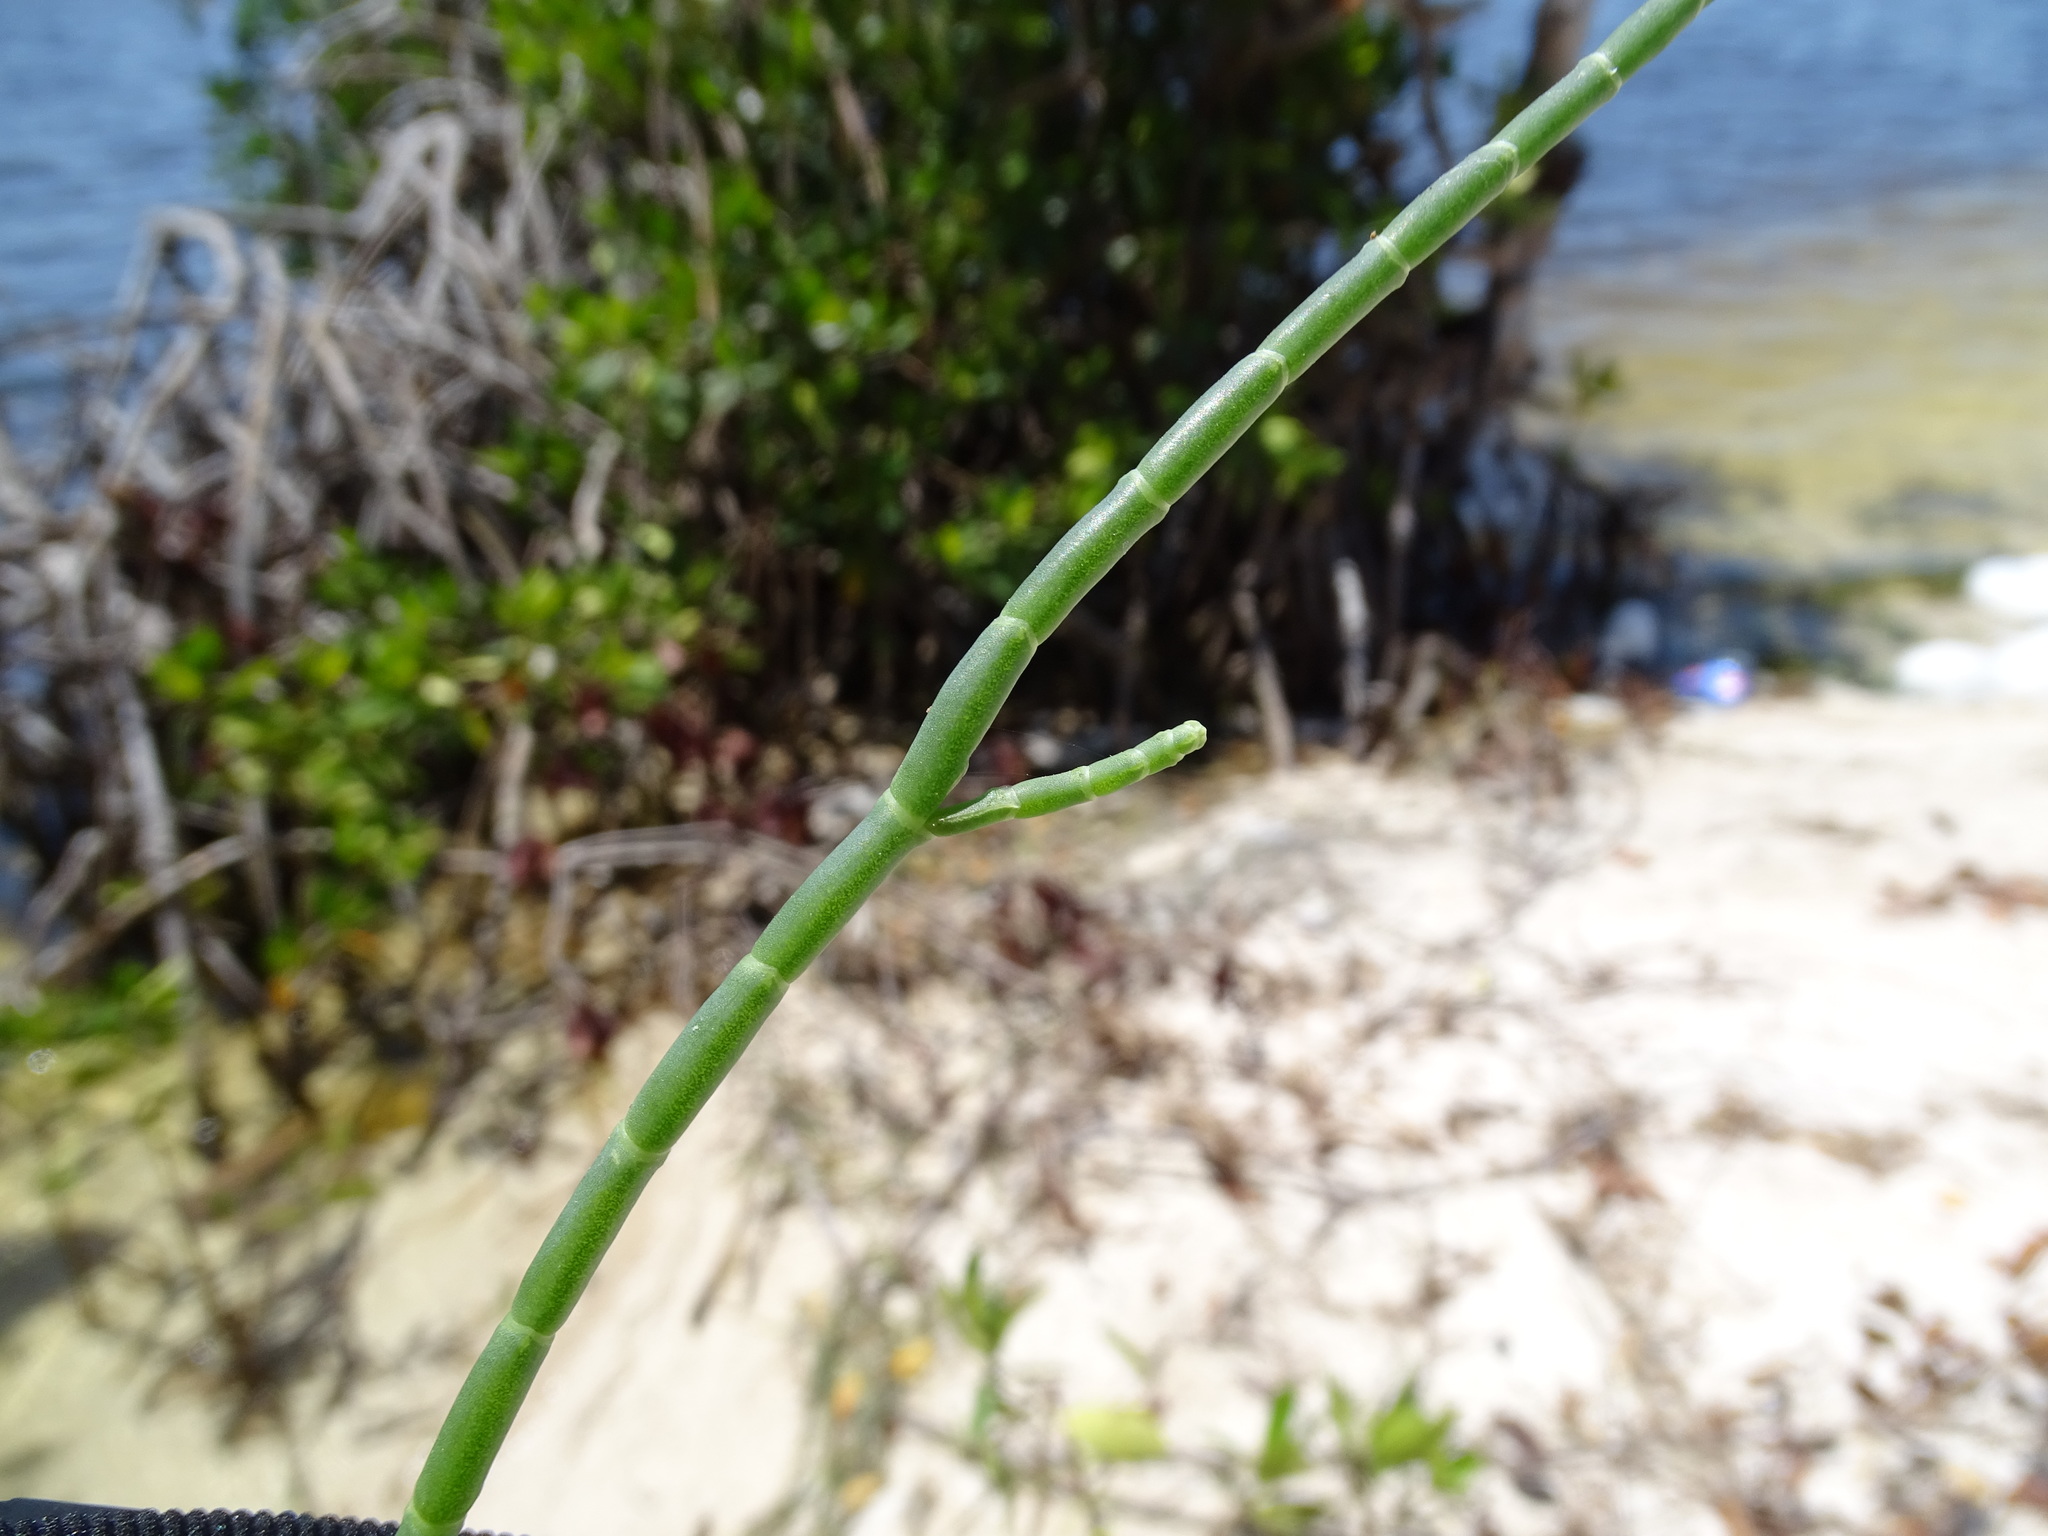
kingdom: Plantae
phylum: Tracheophyta
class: Magnoliopsida
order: Caryophyllales
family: Amaranthaceae
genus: Salicornia
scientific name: Salicornia perennis
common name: Chicken claws
